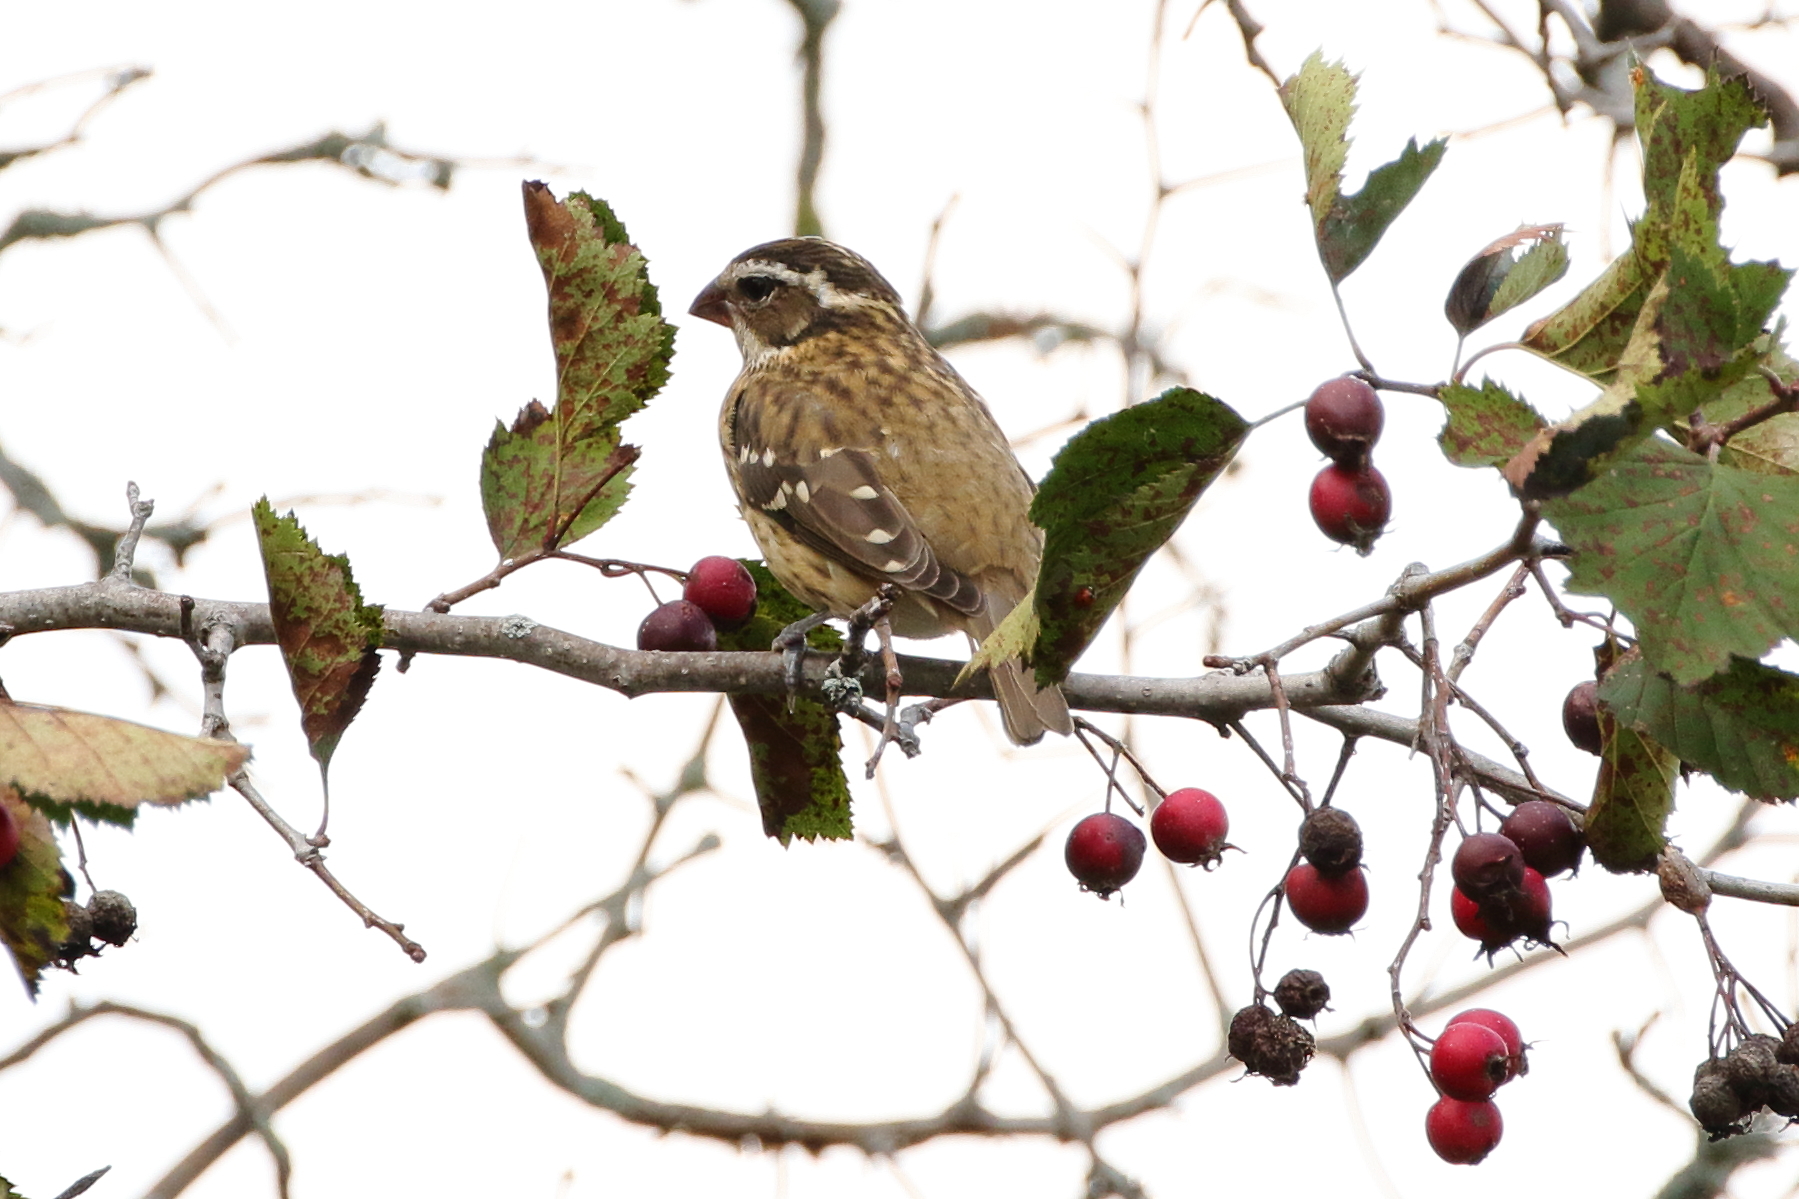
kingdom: Animalia
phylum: Chordata
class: Aves
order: Passeriformes
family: Cardinalidae
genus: Pheucticus
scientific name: Pheucticus ludovicianus
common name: Rose-breasted grosbeak
